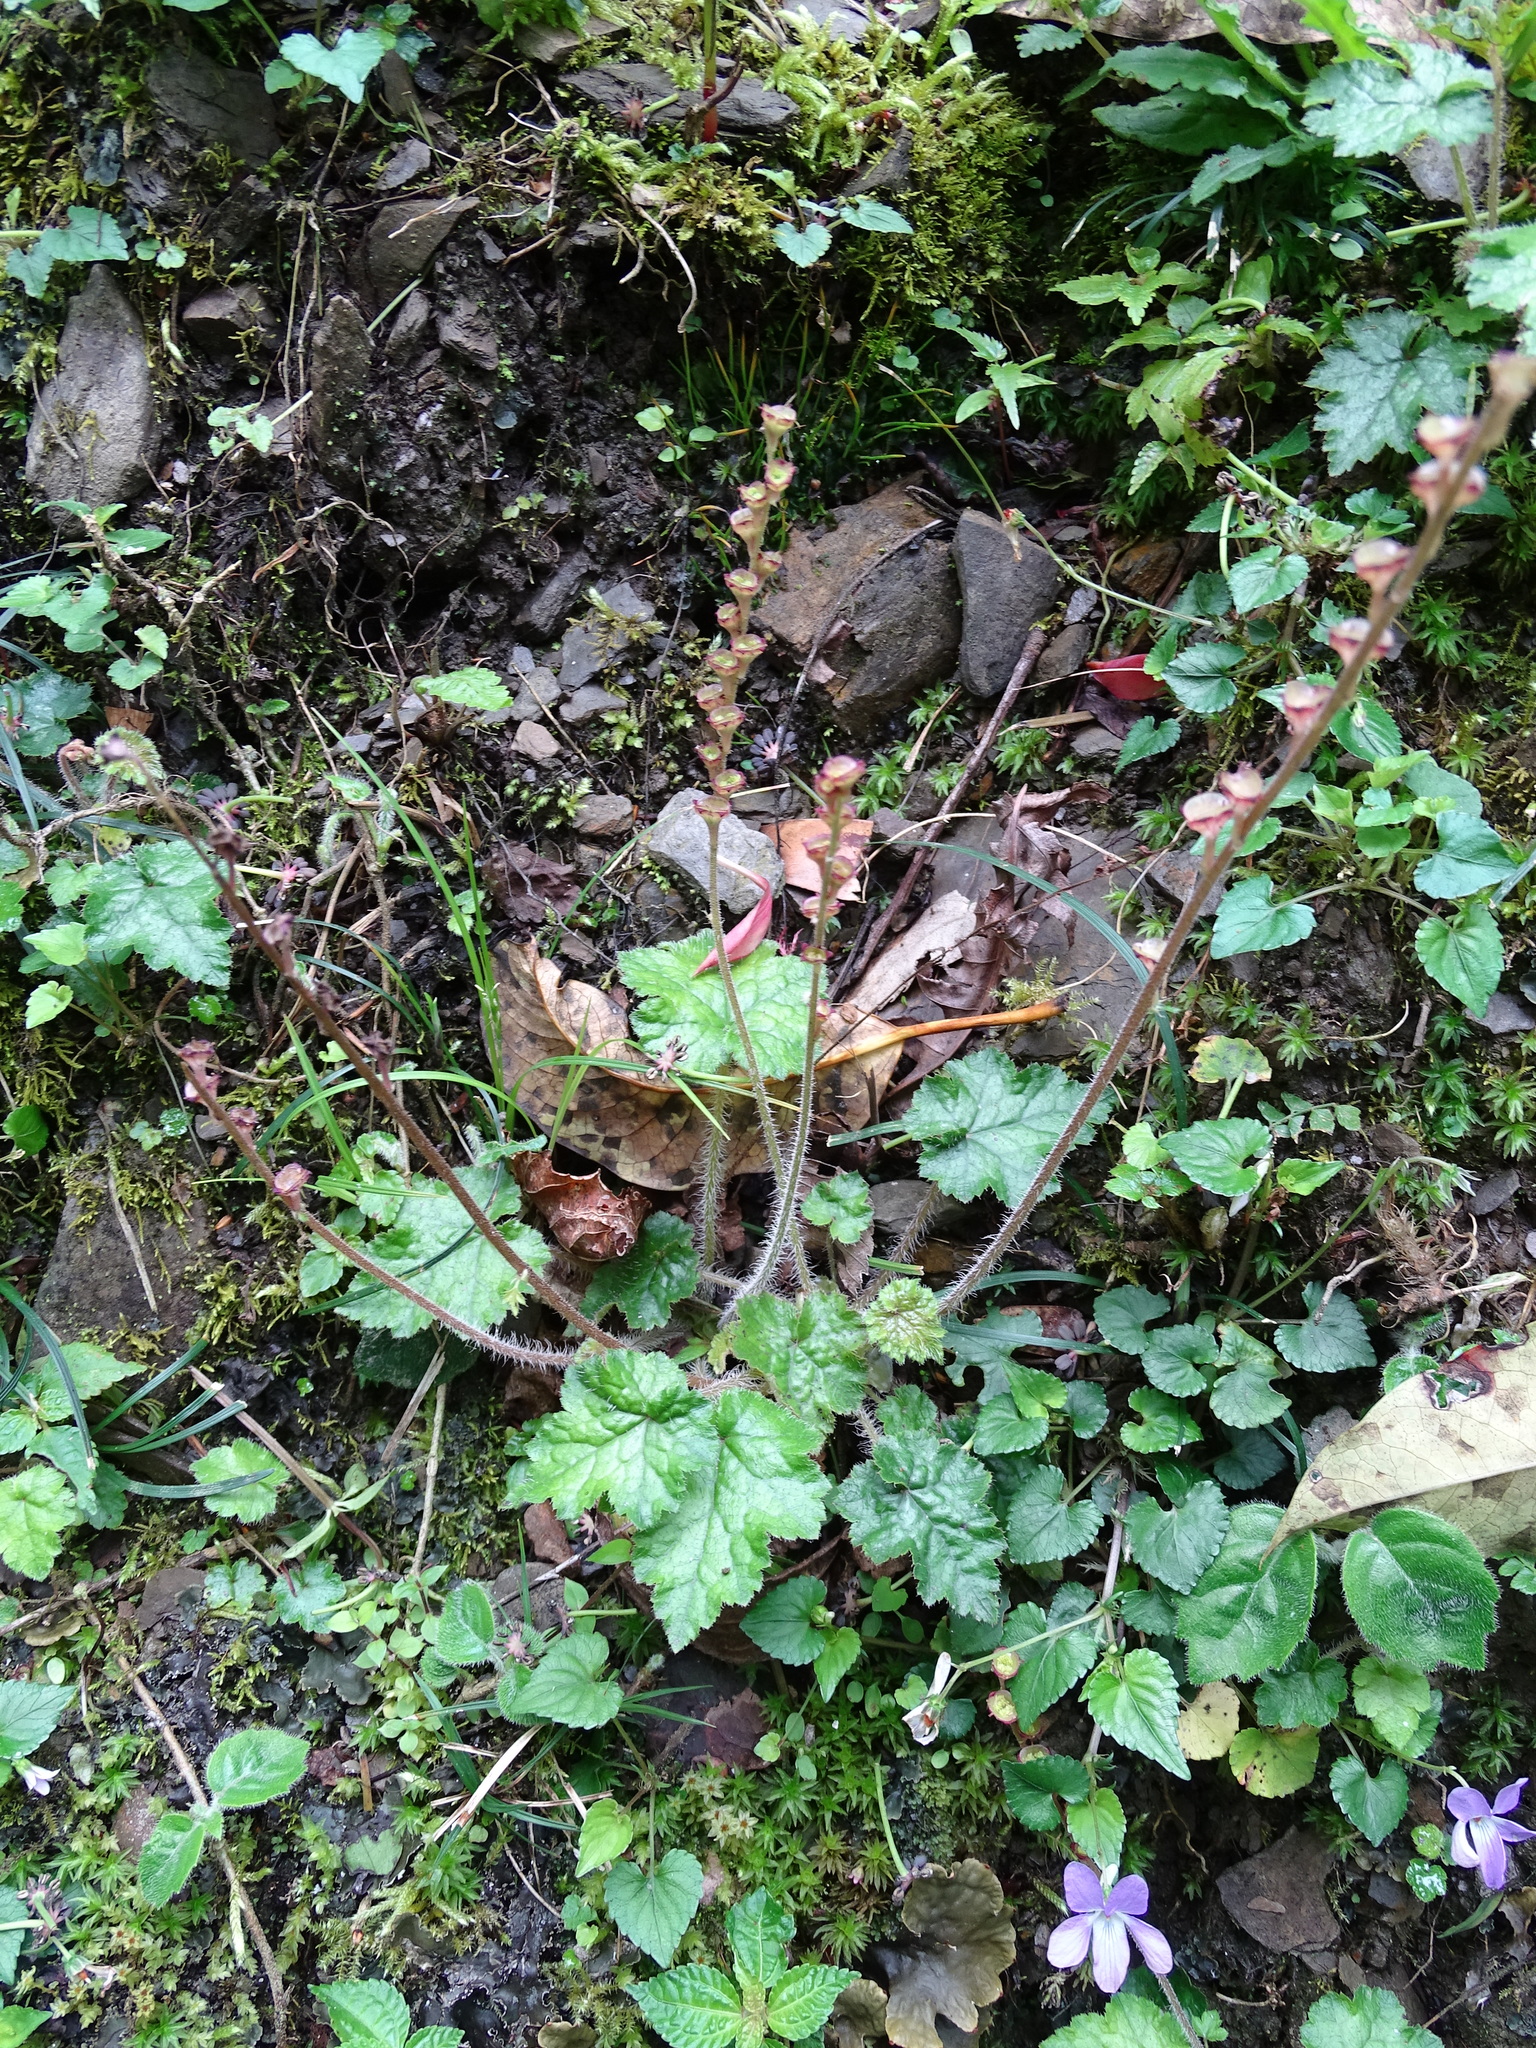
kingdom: Plantae
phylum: Tracheophyta
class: Magnoliopsida
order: Saxifragales
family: Saxifragaceae
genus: Asimitellaria
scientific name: Asimitellaria formosana
